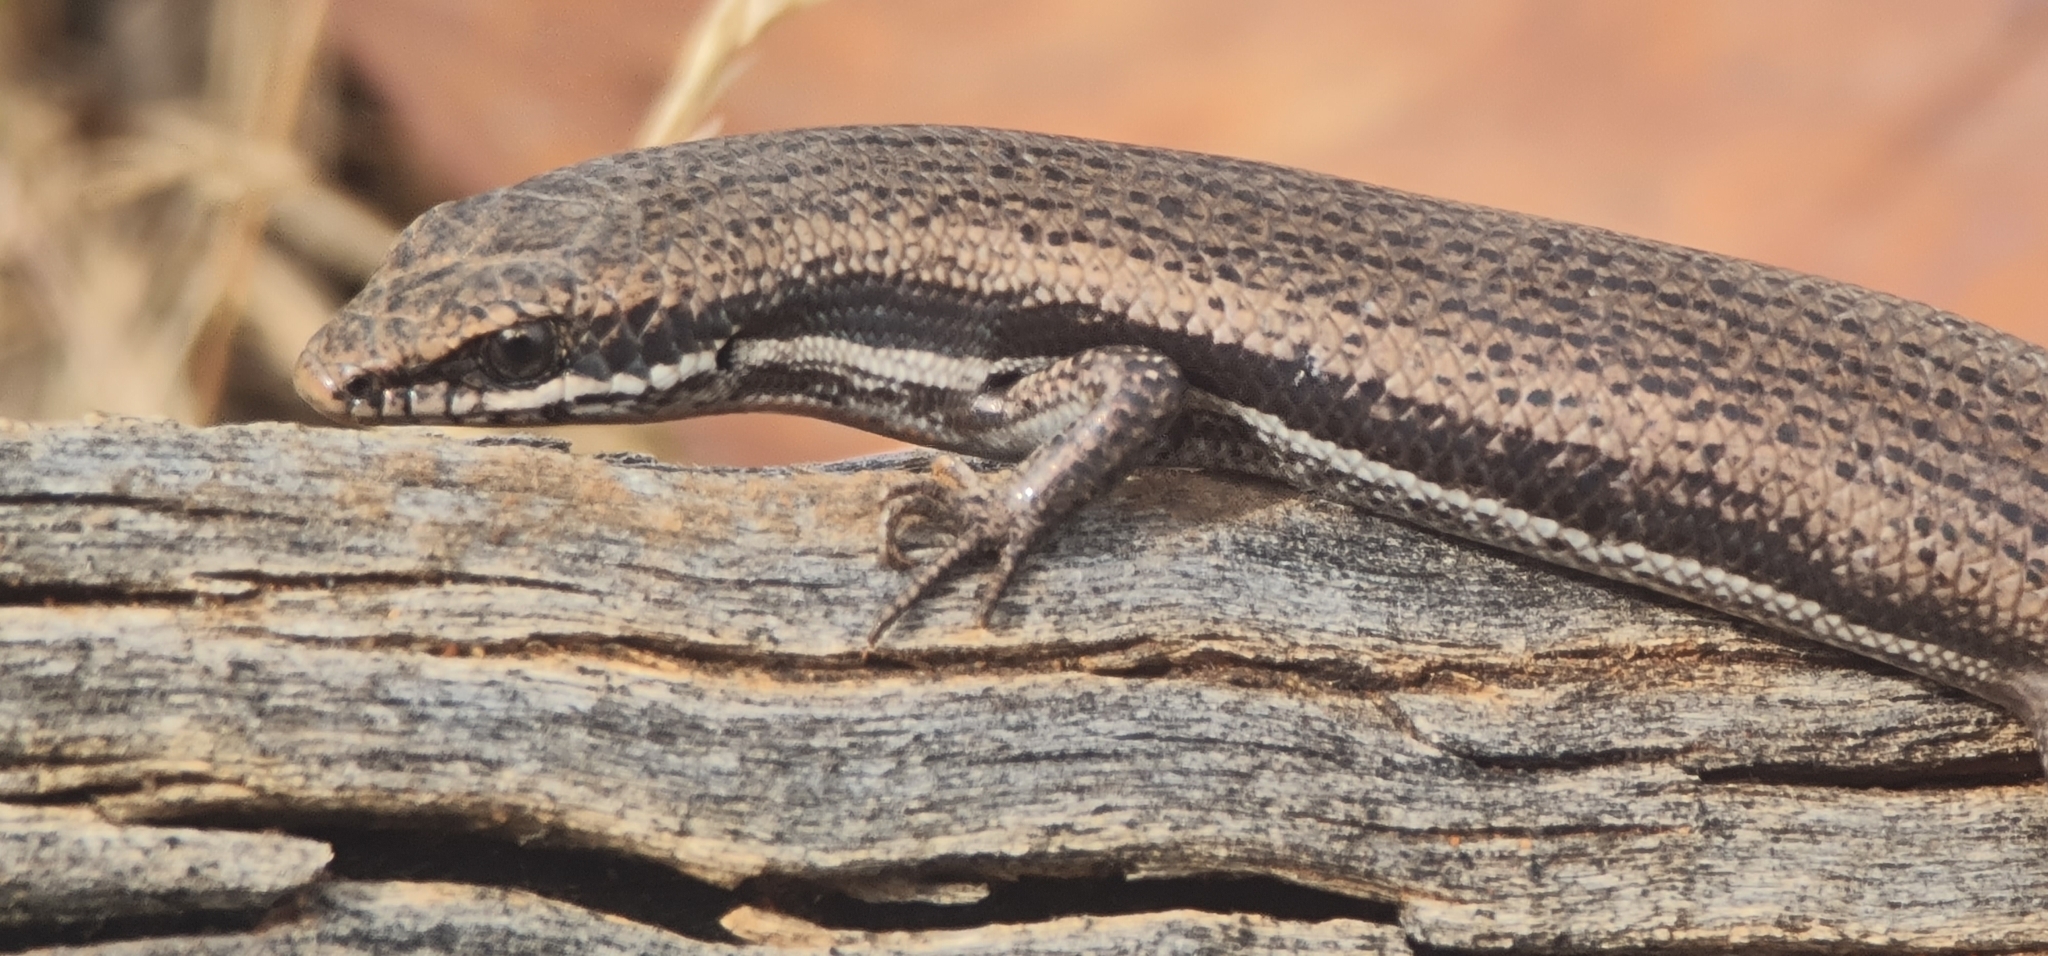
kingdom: Animalia
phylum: Chordata
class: Squamata
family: Scincidae
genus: Morethia
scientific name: Morethia boulengeri
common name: South-eastern morethia skink
